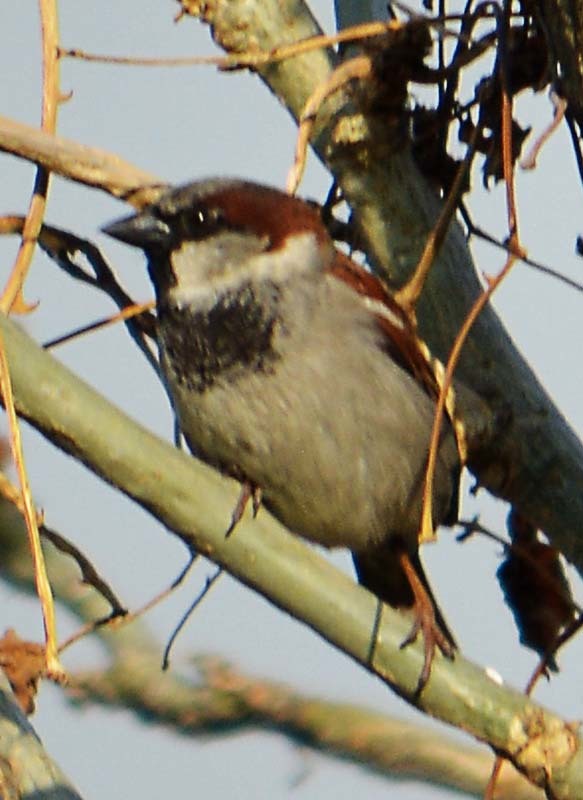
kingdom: Animalia
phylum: Chordata
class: Aves
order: Passeriformes
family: Passeridae
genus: Passer
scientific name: Passer domesticus
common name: House sparrow
